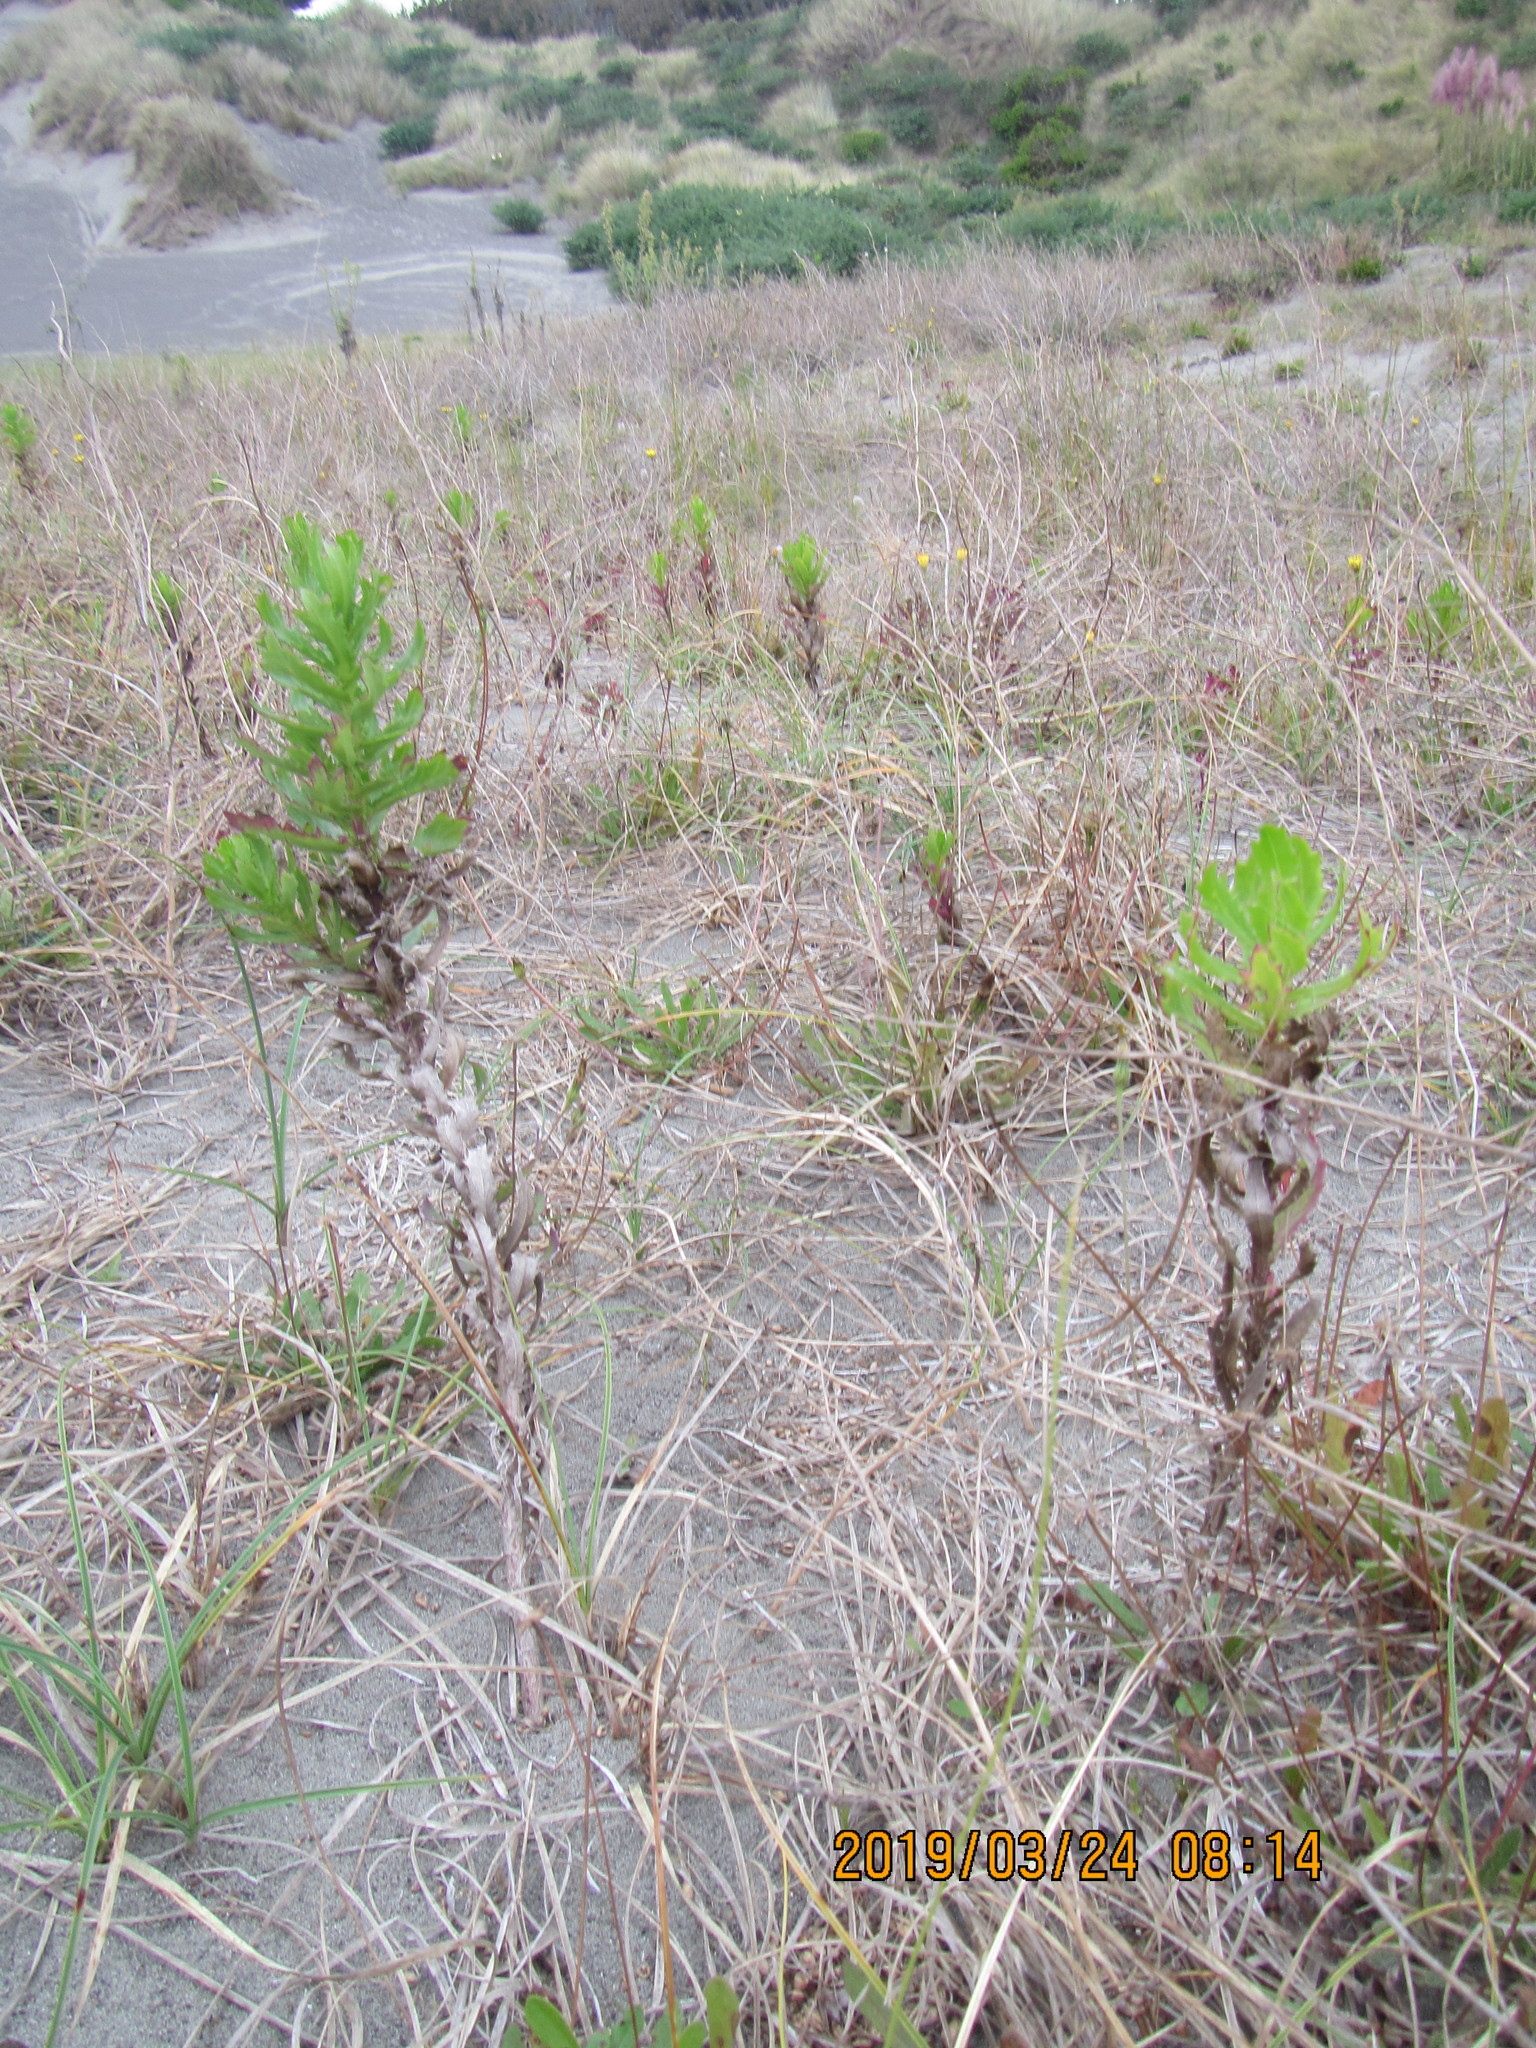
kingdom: Plantae
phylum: Tracheophyta
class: Magnoliopsida
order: Asterales
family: Asteraceae
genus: Senecio
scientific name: Senecio glastifolius
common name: Woad-leaved ragwort
